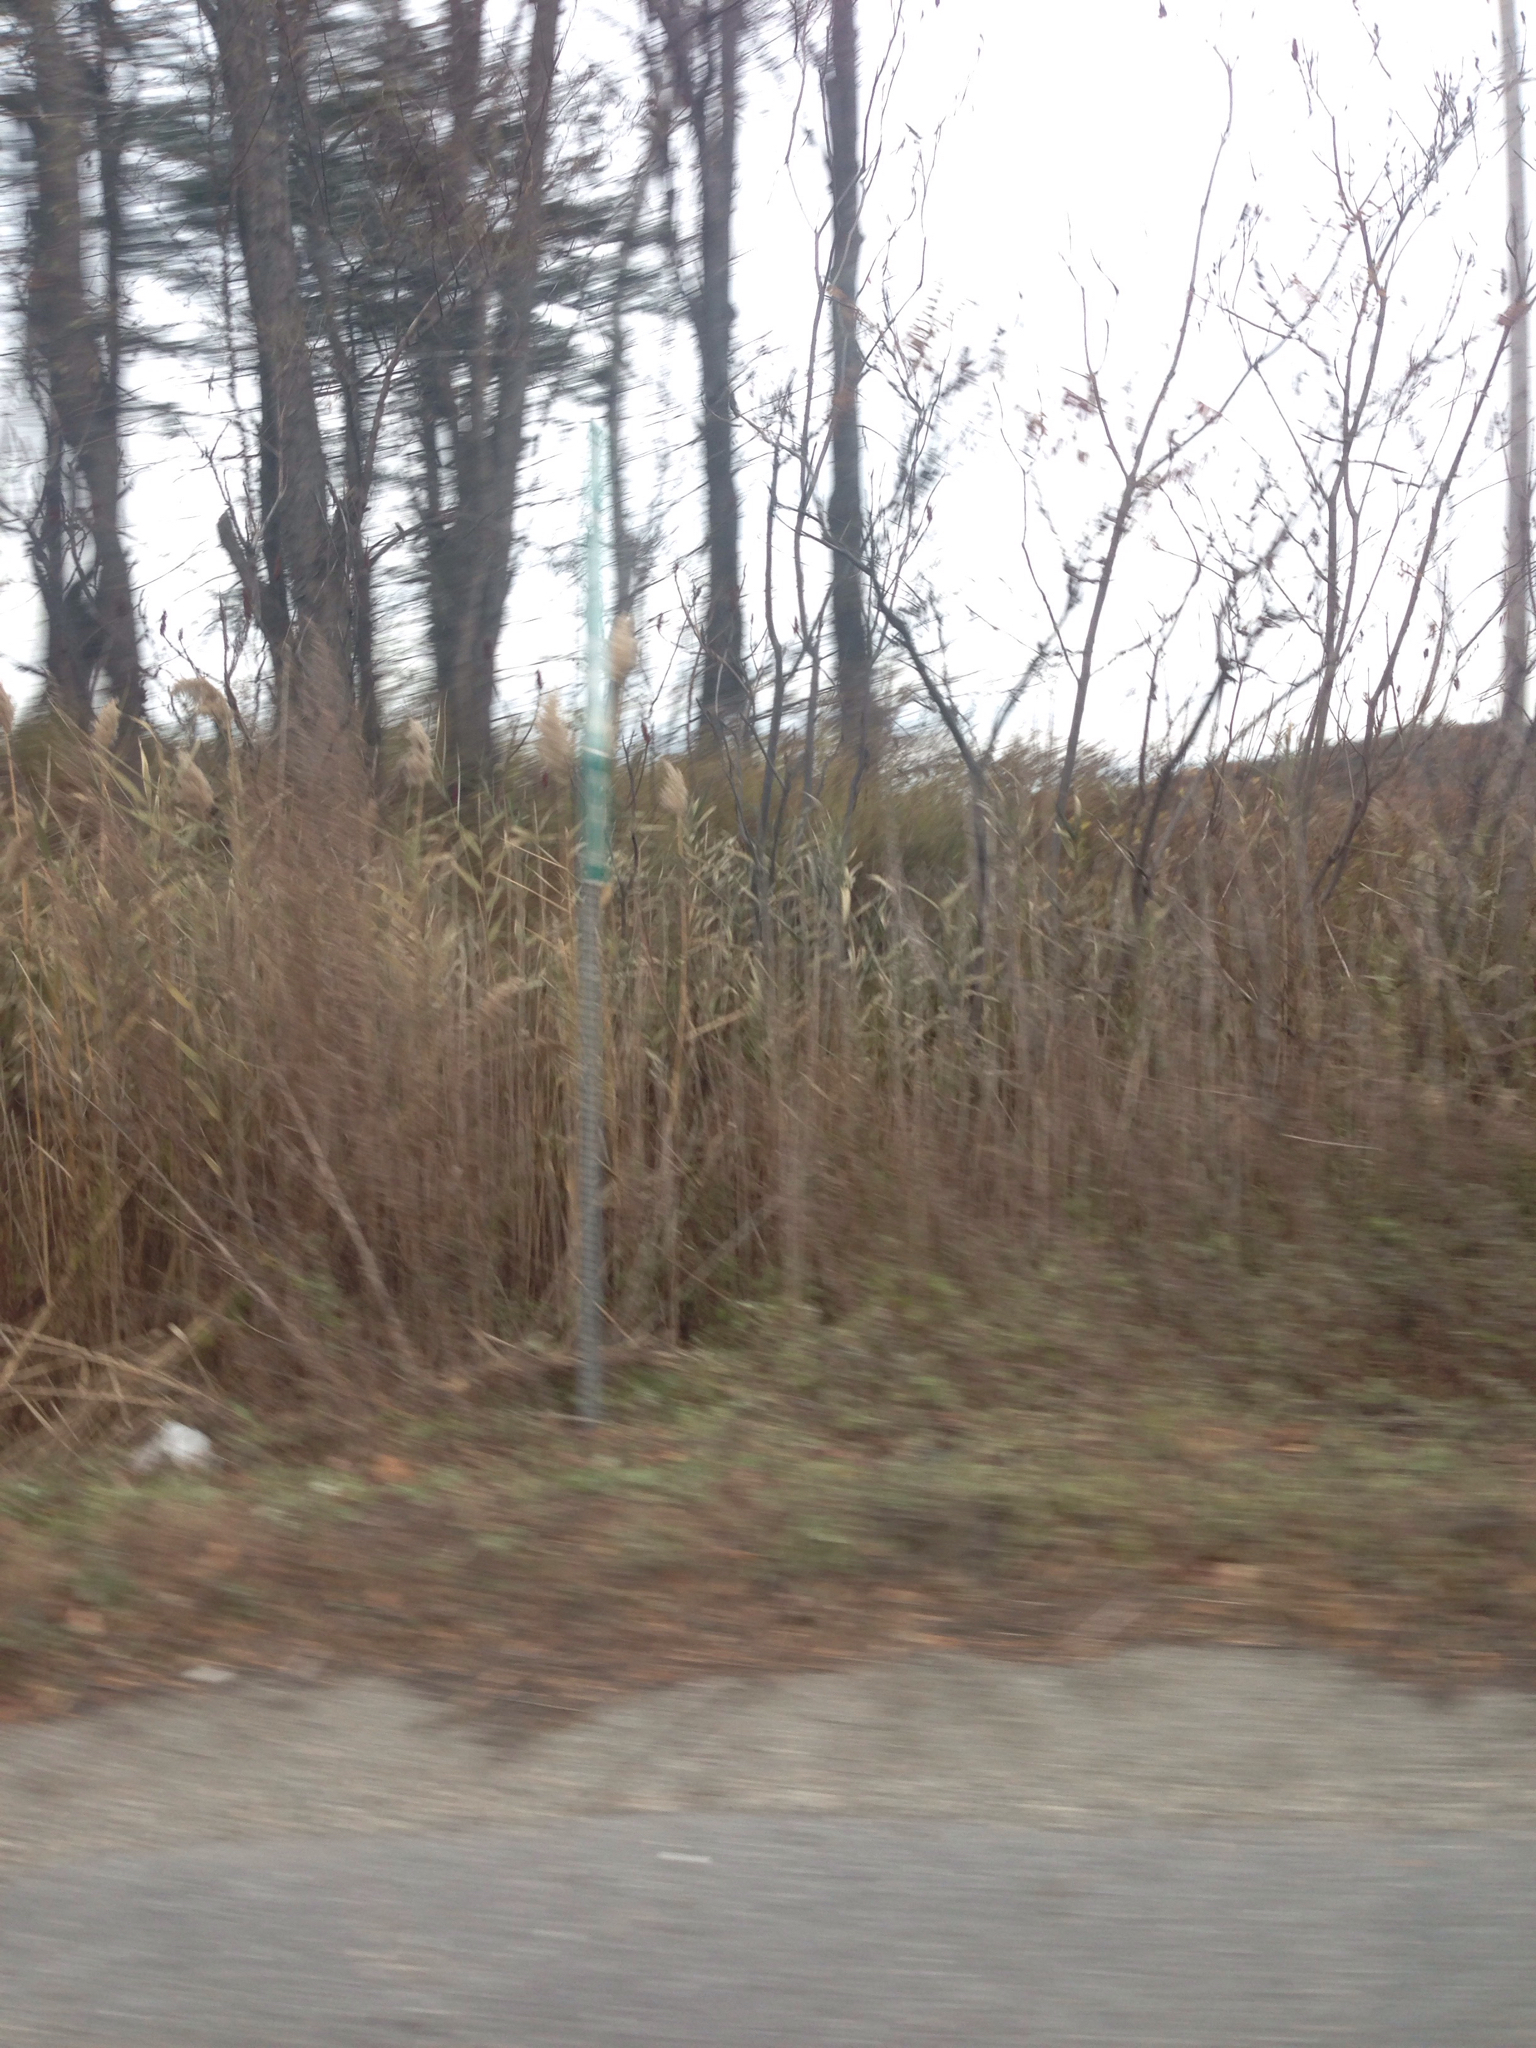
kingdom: Plantae
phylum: Tracheophyta
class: Liliopsida
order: Poales
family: Poaceae
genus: Phragmites
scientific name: Phragmites australis
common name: Common reed
